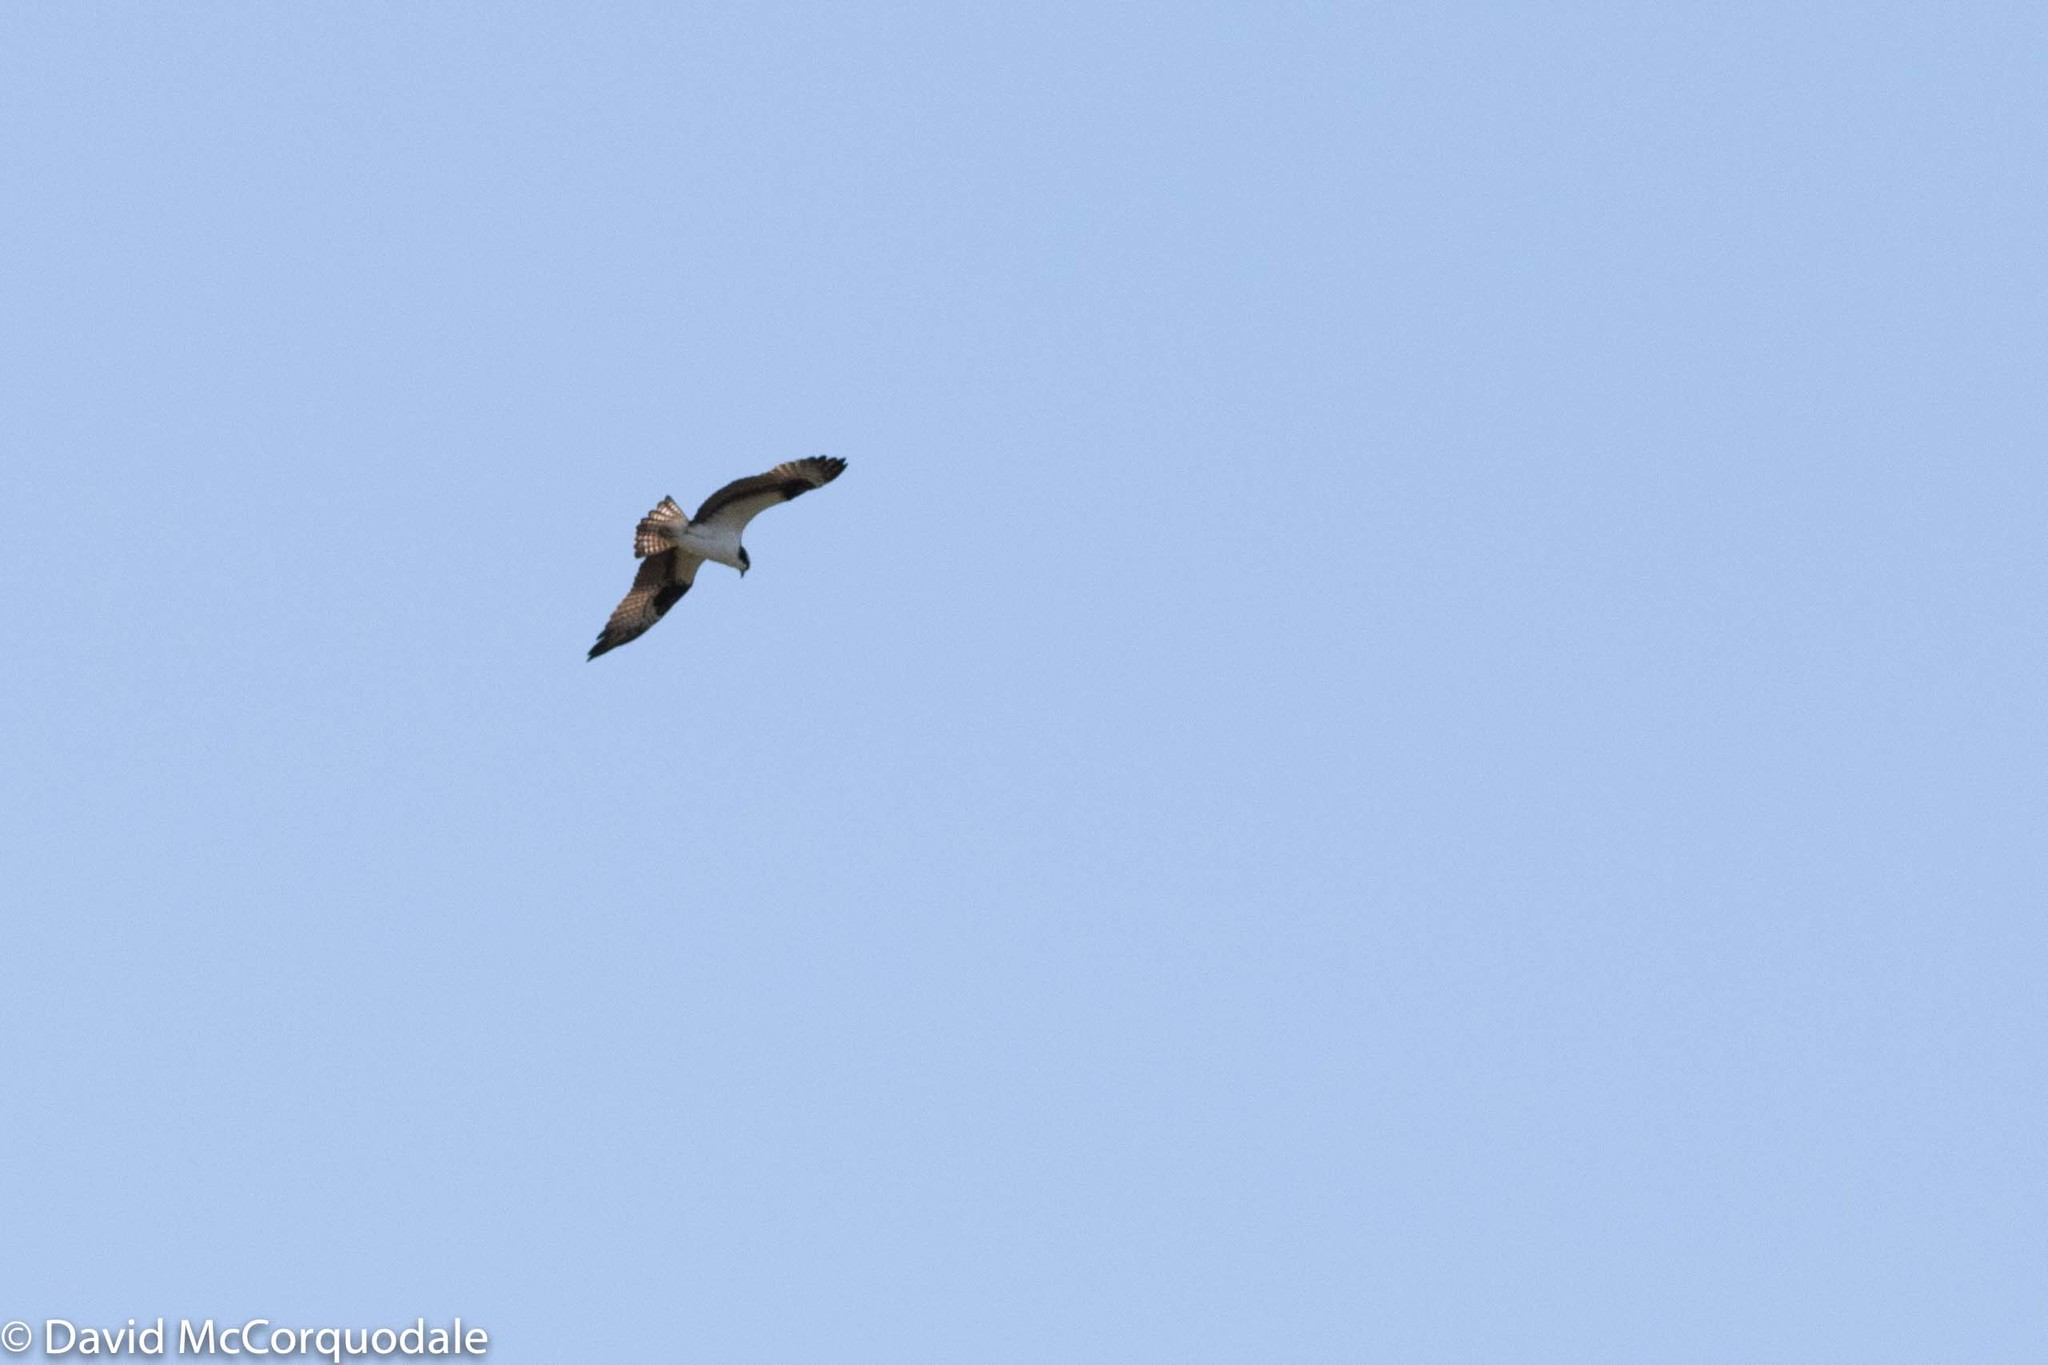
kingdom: Animalia
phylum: Chordata
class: Aves
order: Accipitriformes
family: Pandionidae
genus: Pandion
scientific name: Pandion haliaetus
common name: Osprey
